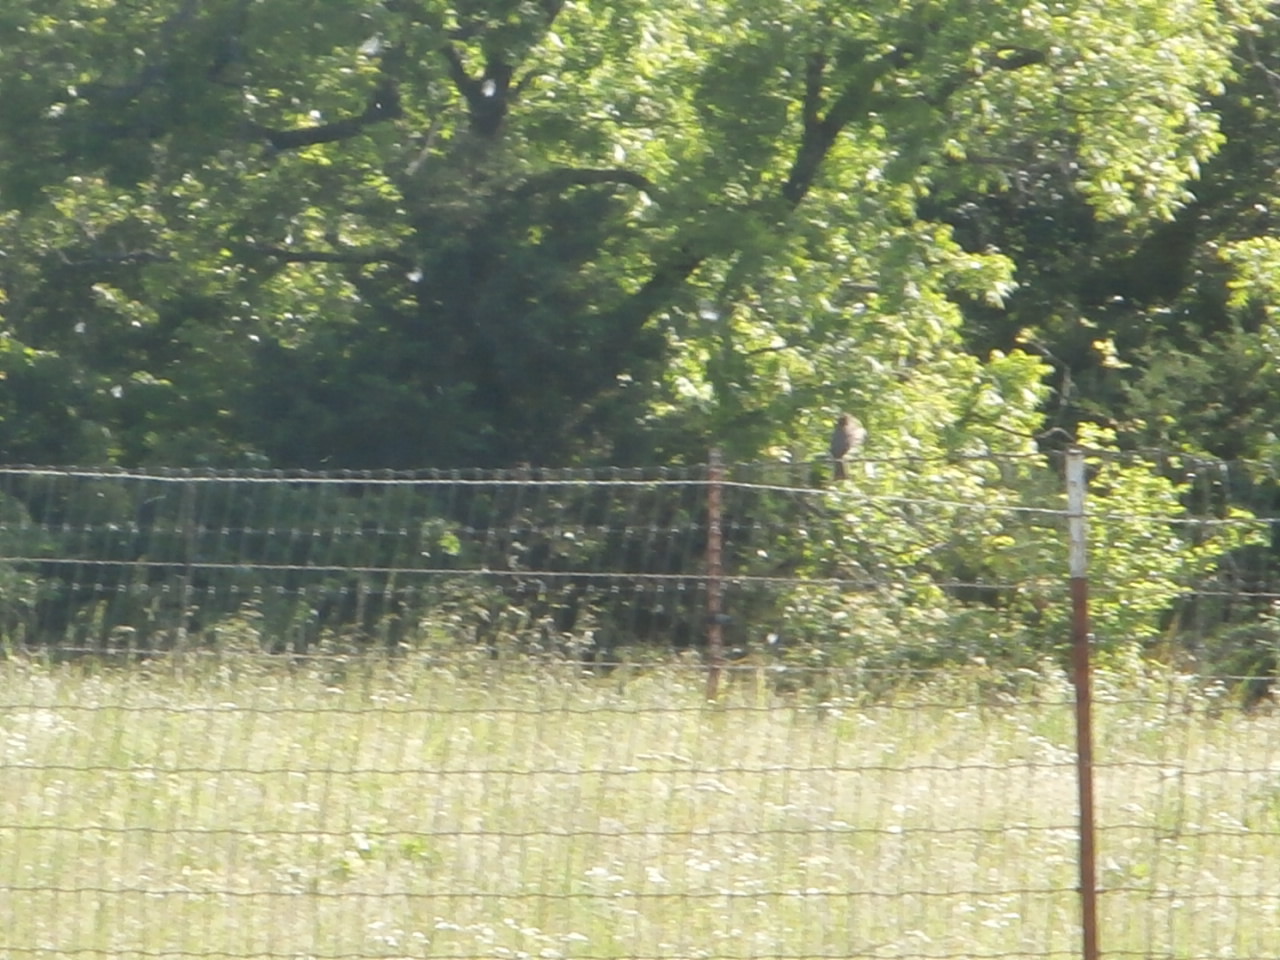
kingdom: Animalia
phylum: Chordata
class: Aves
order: Passeriformes
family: Tyrannidae
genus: Tyrannus
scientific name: Tyrannus tyrannus
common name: Eastern kingbird
